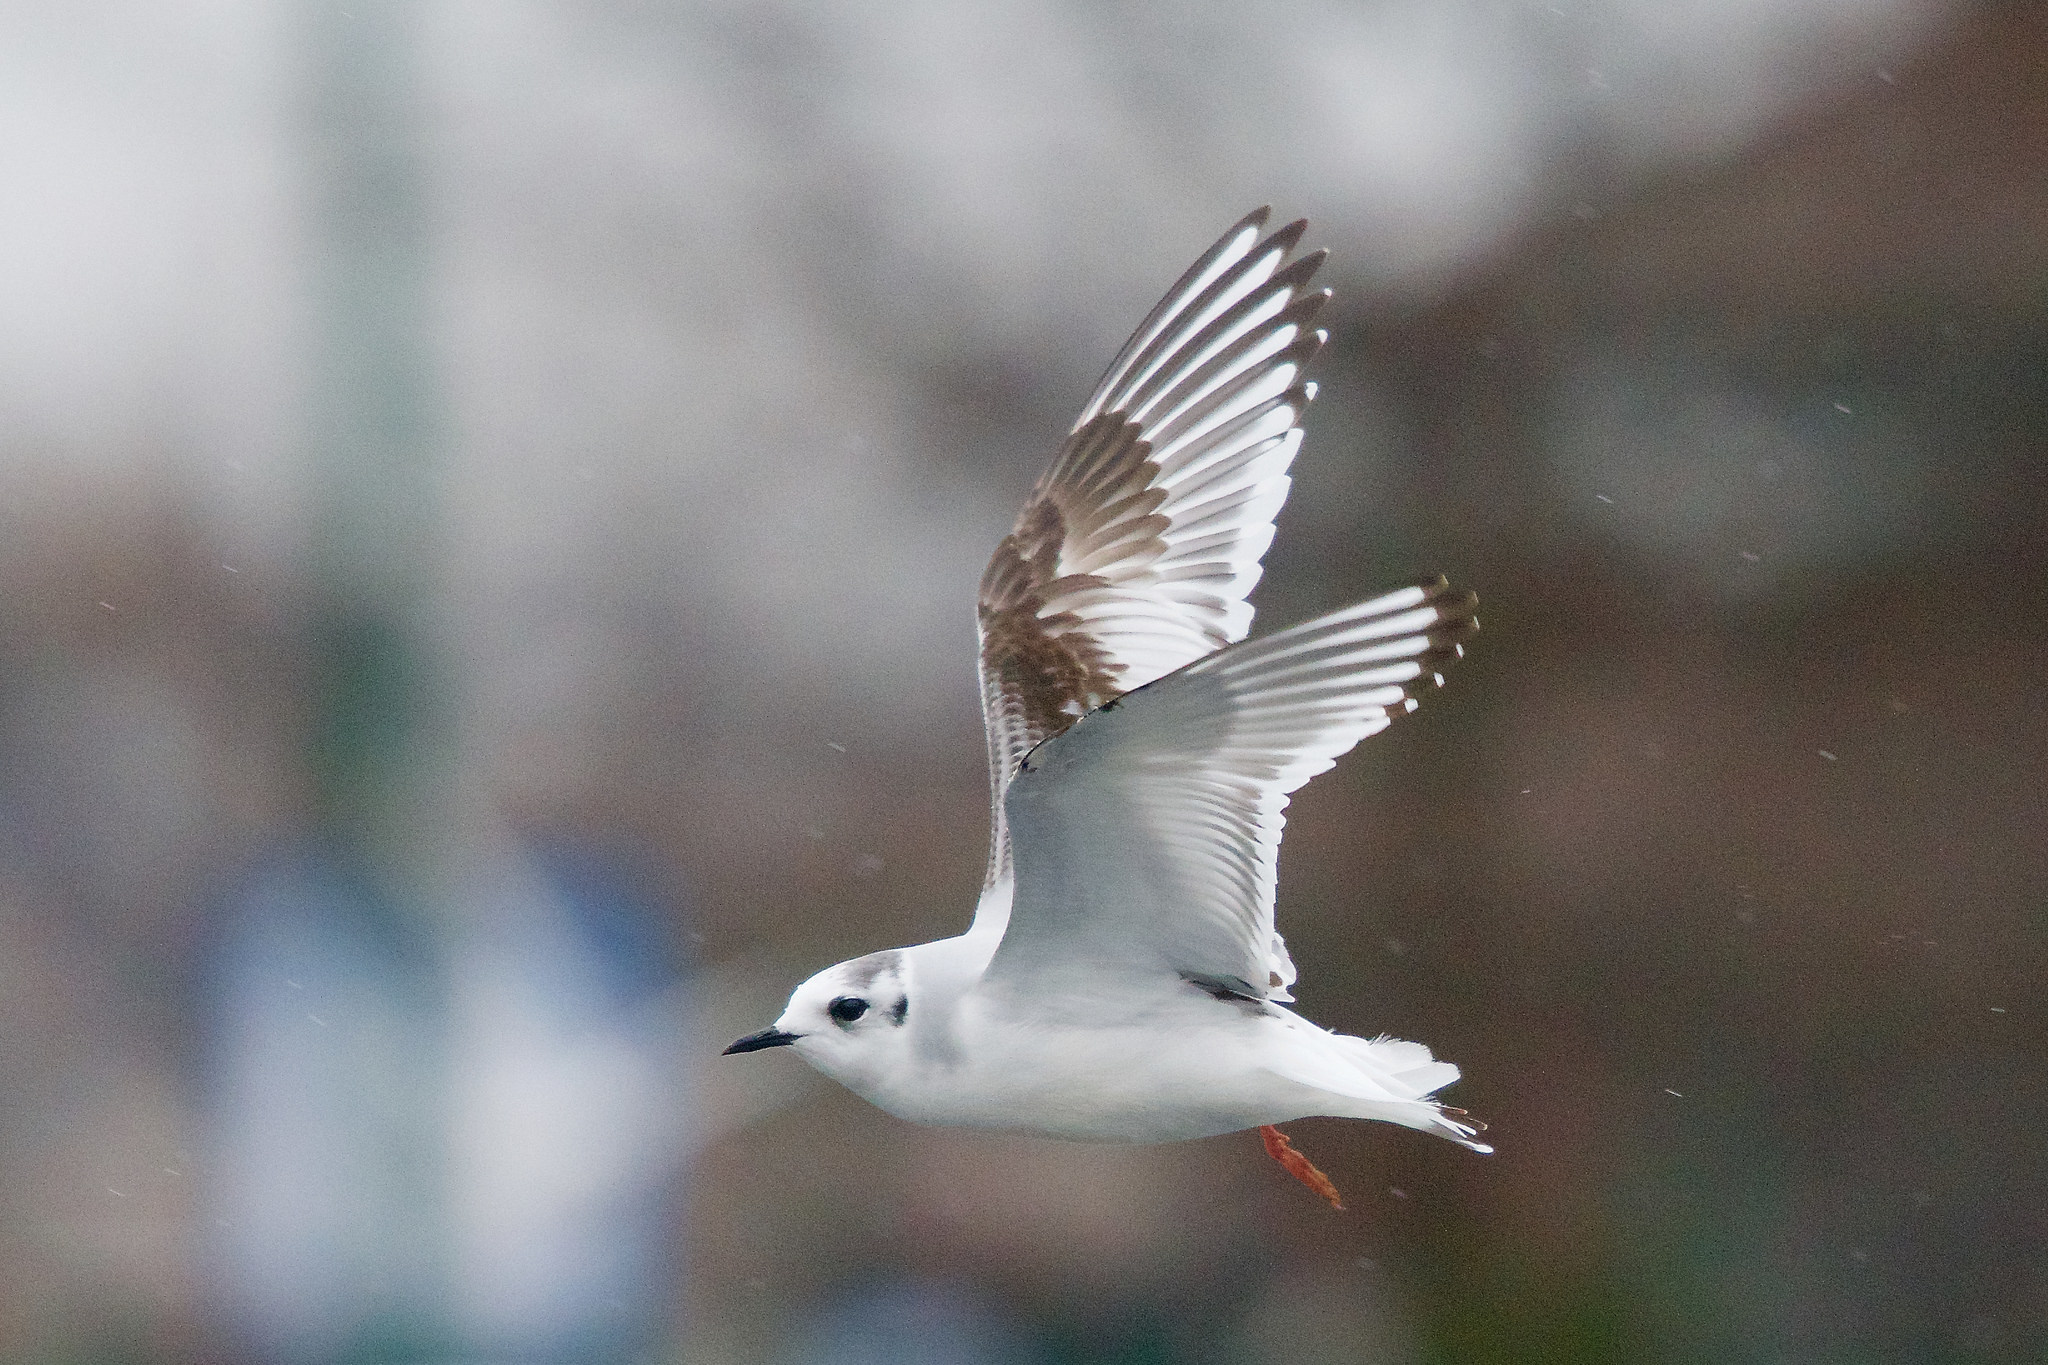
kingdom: Animalia
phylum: Chordata
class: Aves
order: Charadriiformes
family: Laridae
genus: Hydrocoloeus
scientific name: Hydrocoloeus minutus
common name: Little gull
